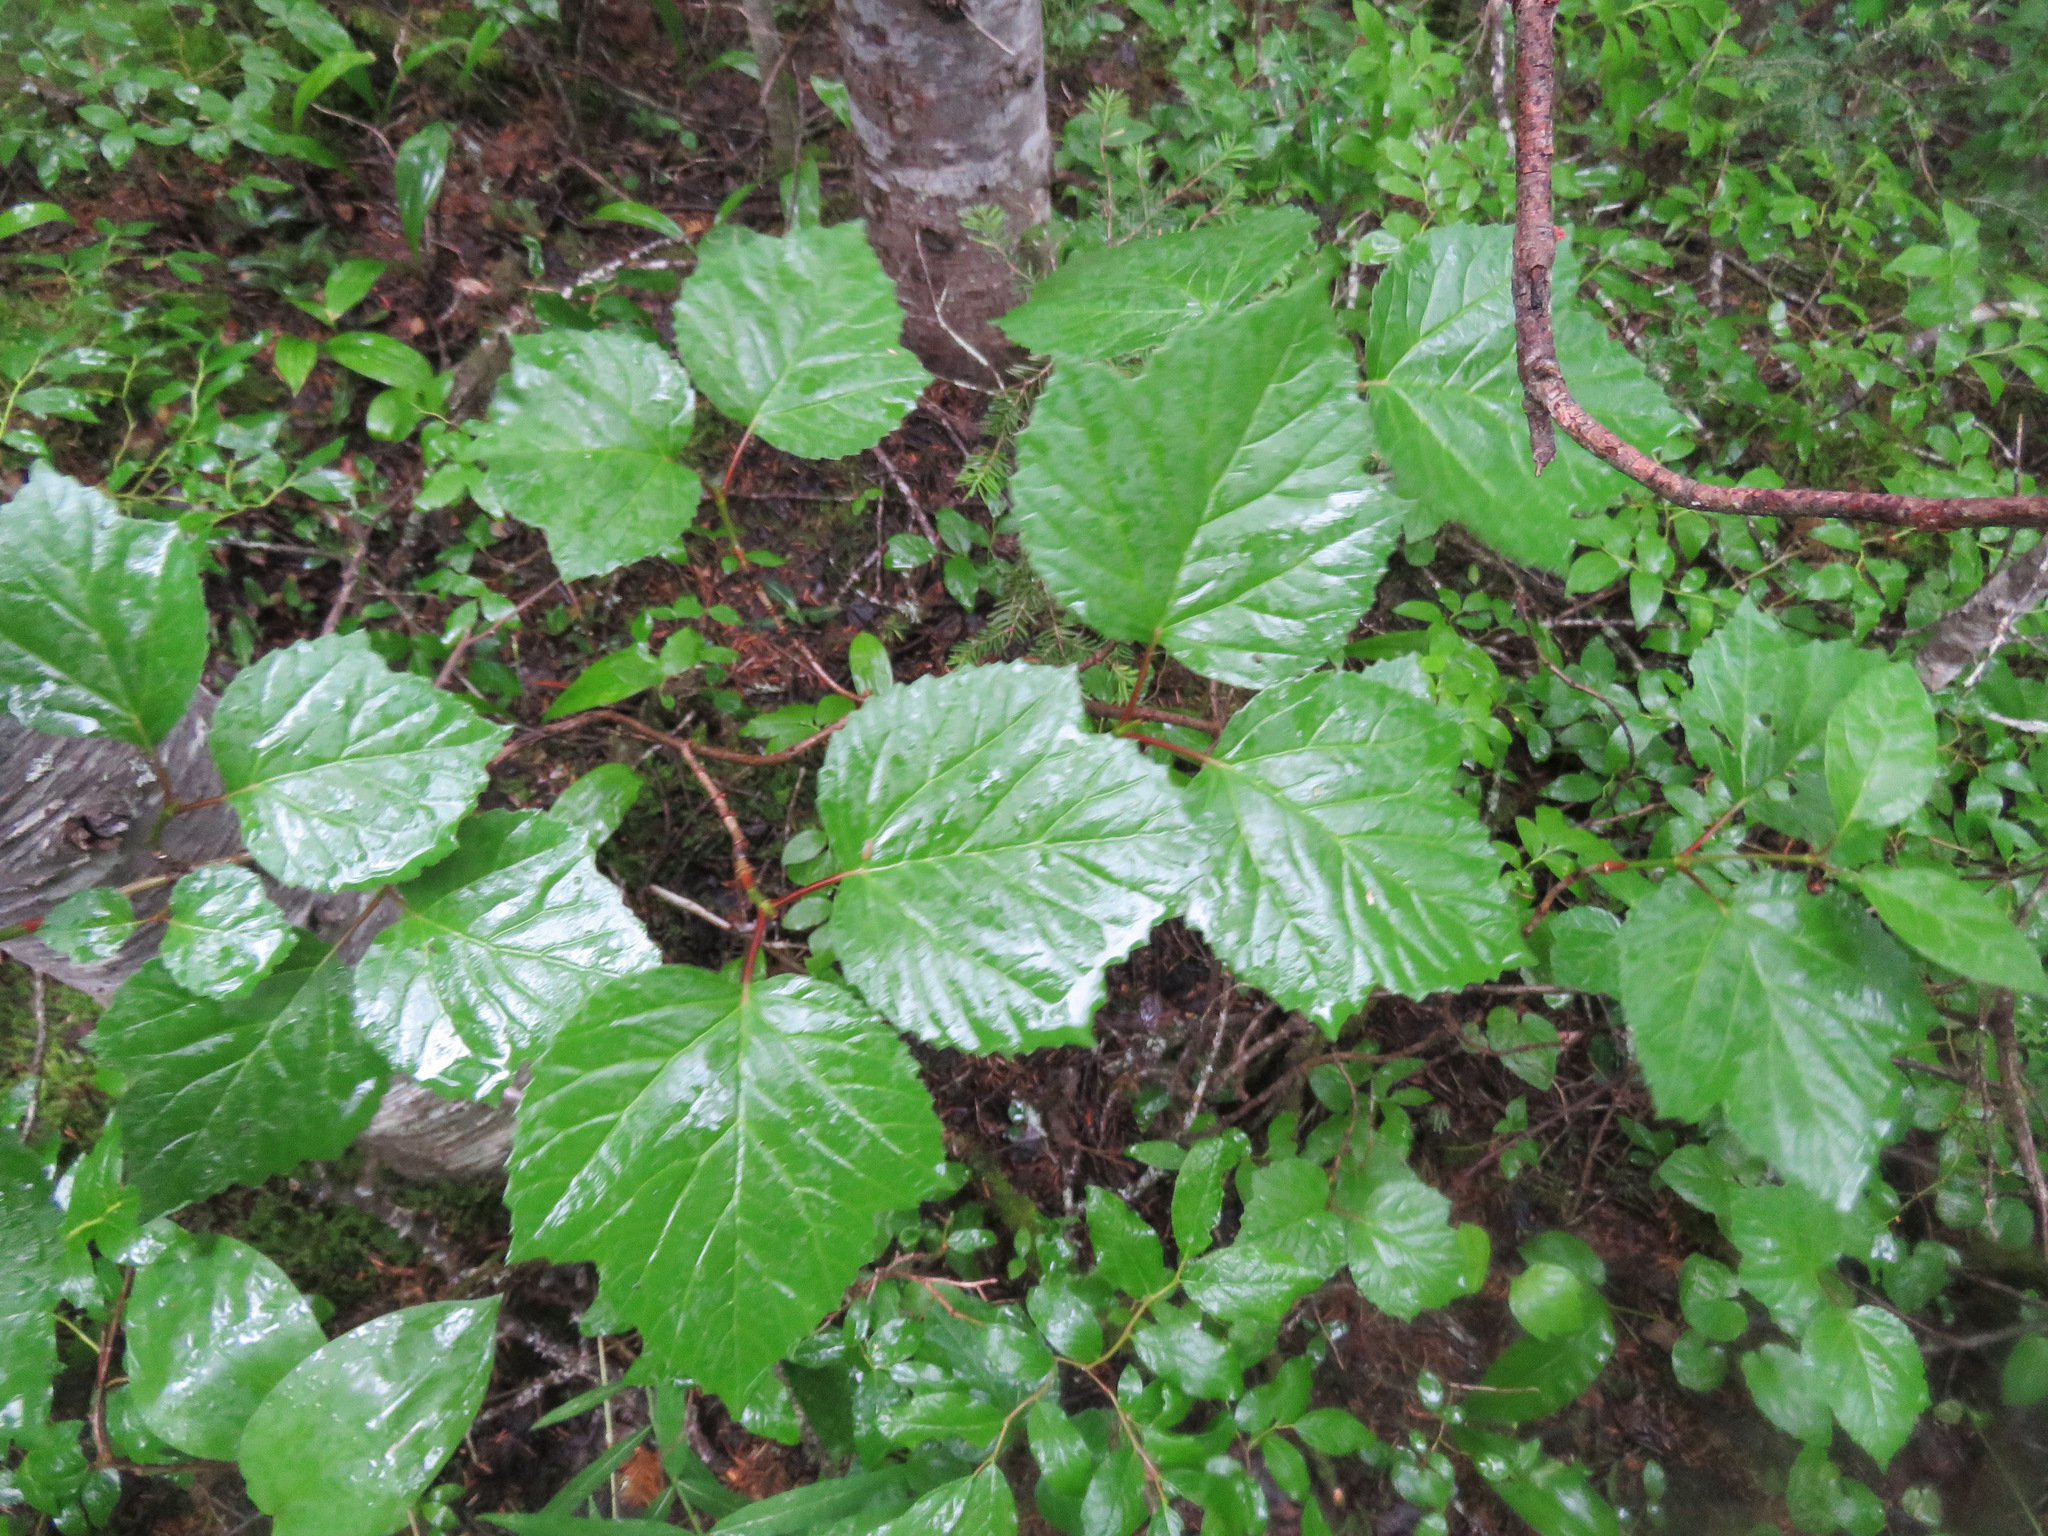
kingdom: Plantae
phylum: Tracheophyta
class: Magnoliopsida
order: Dipsacales
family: Viburnaceae
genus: Viburnum
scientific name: Viburnum edule
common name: Mooseberry
